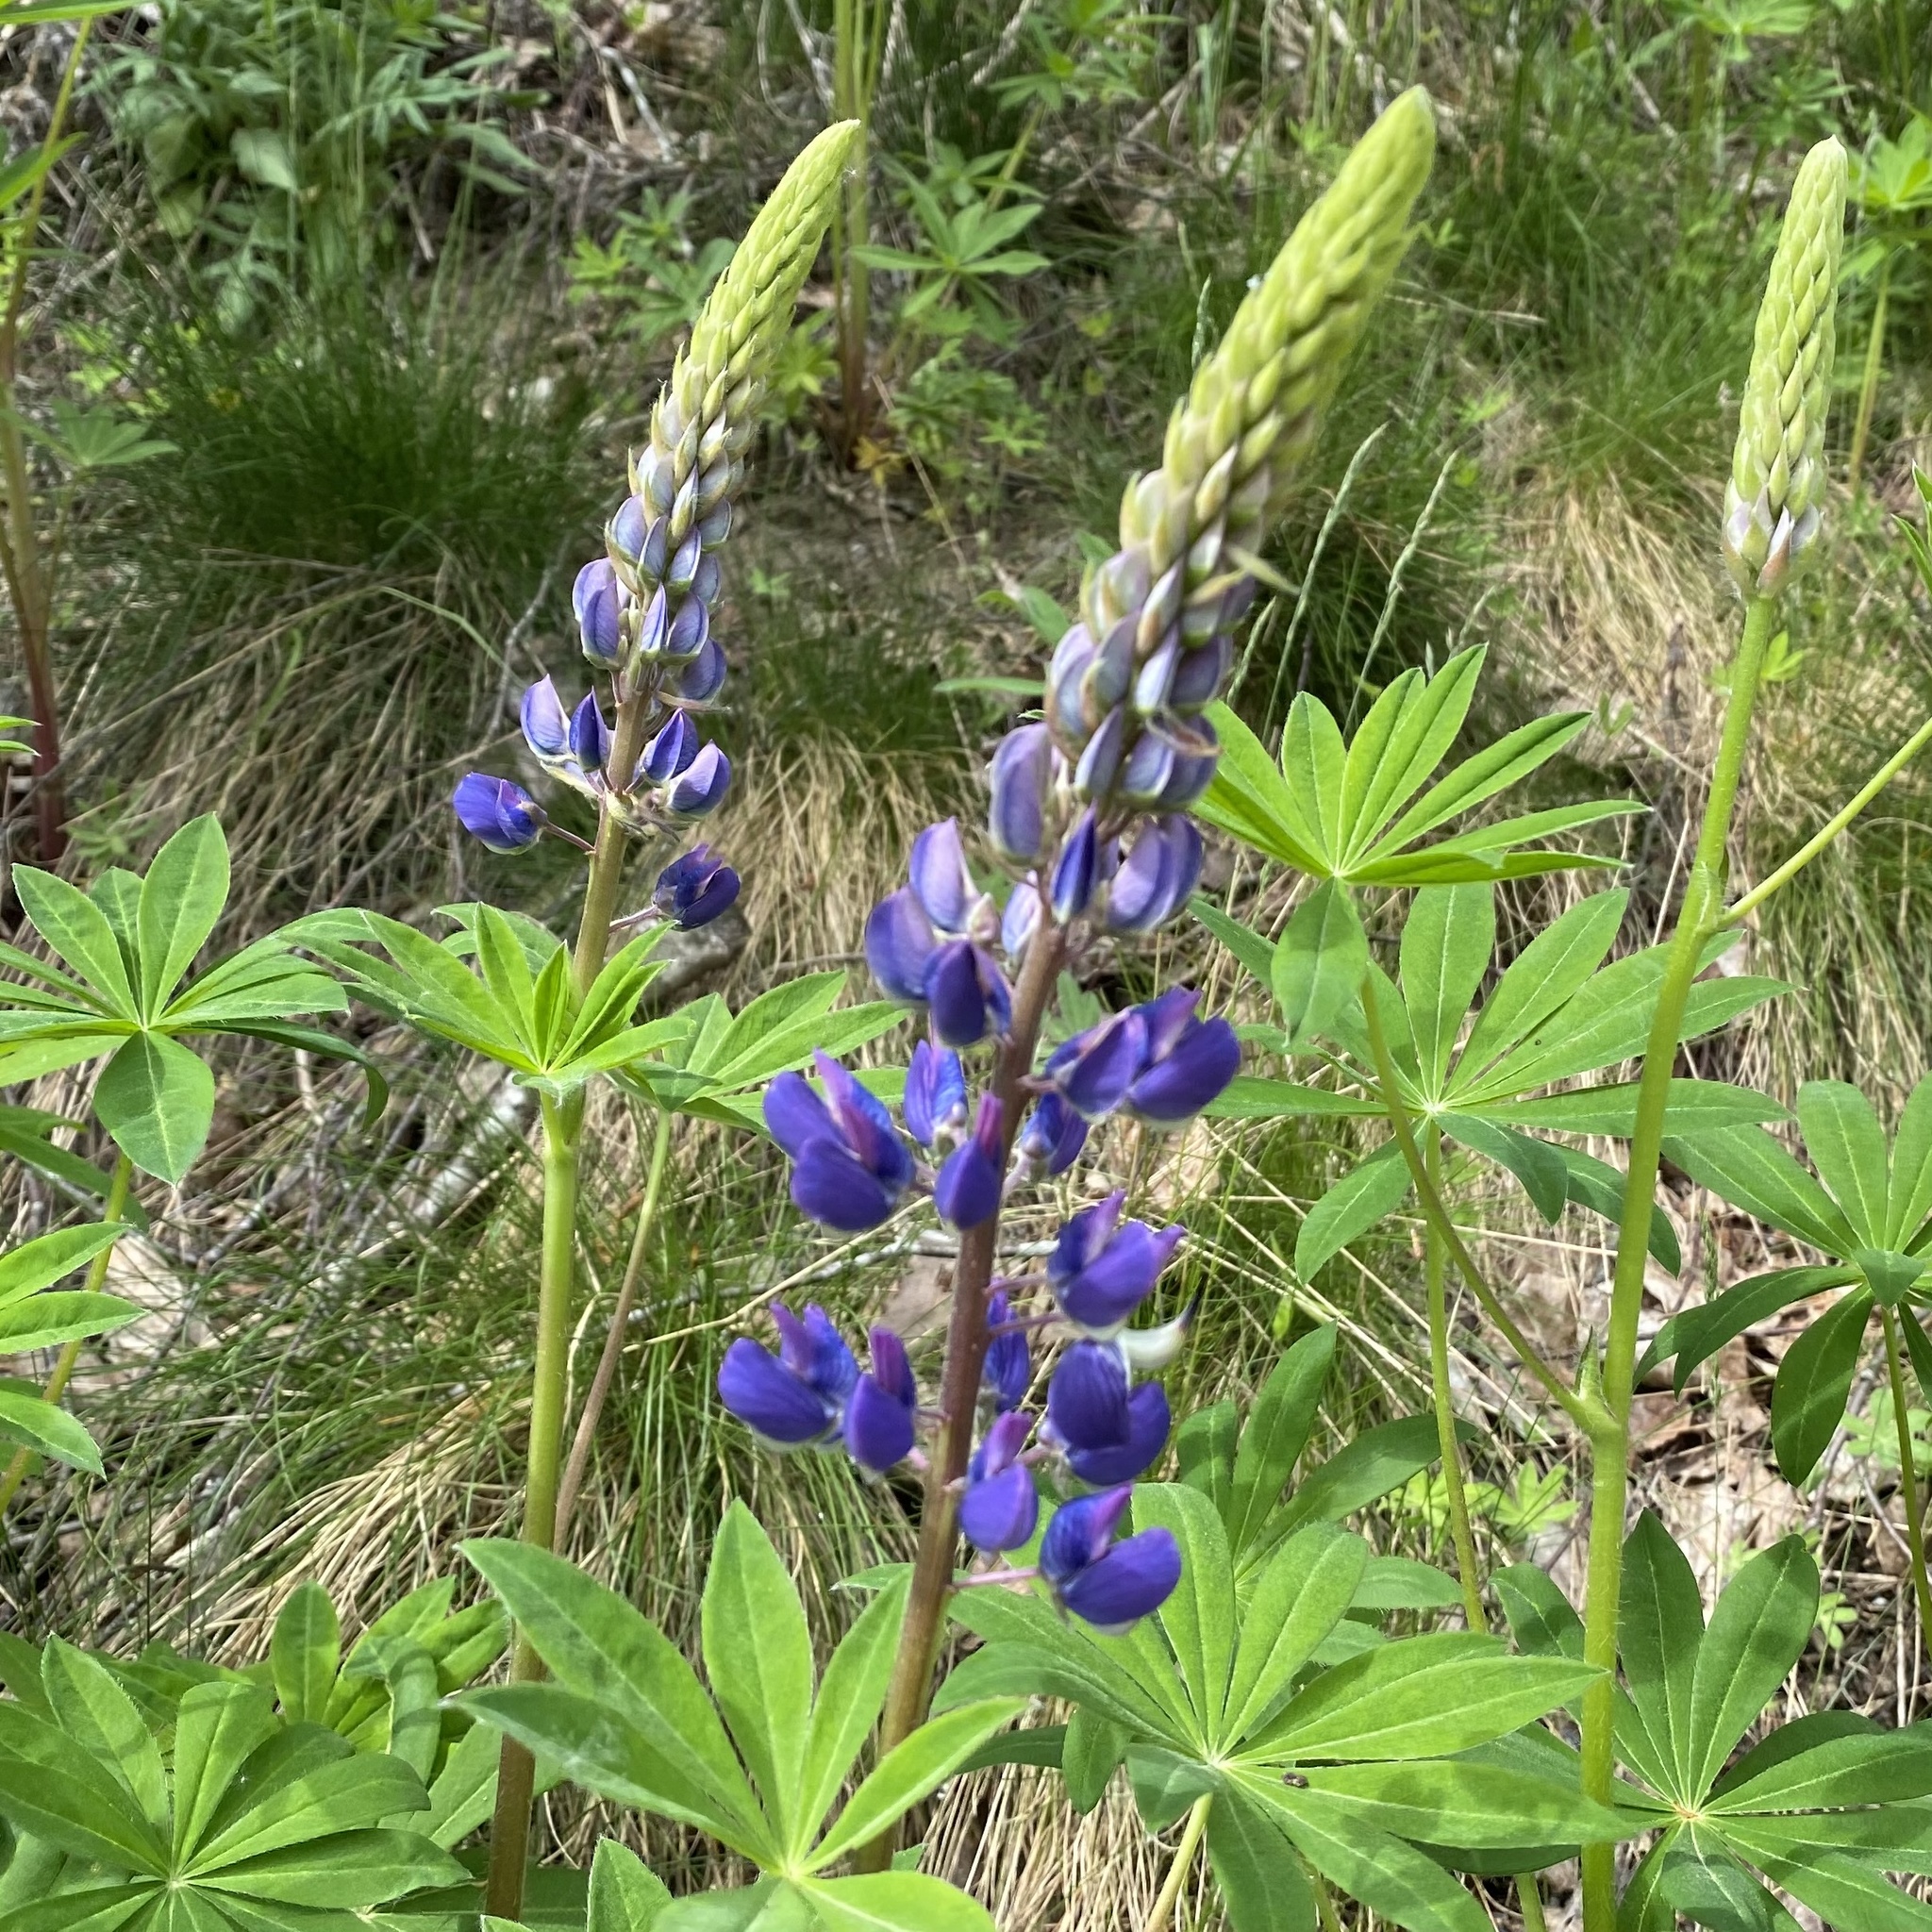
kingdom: Plantae
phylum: Tracheophyta
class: Magnoliopsida
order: Fabales
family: Fabaceae
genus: Lupinus
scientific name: Lupinus polyphyllus
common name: Garden lupin
